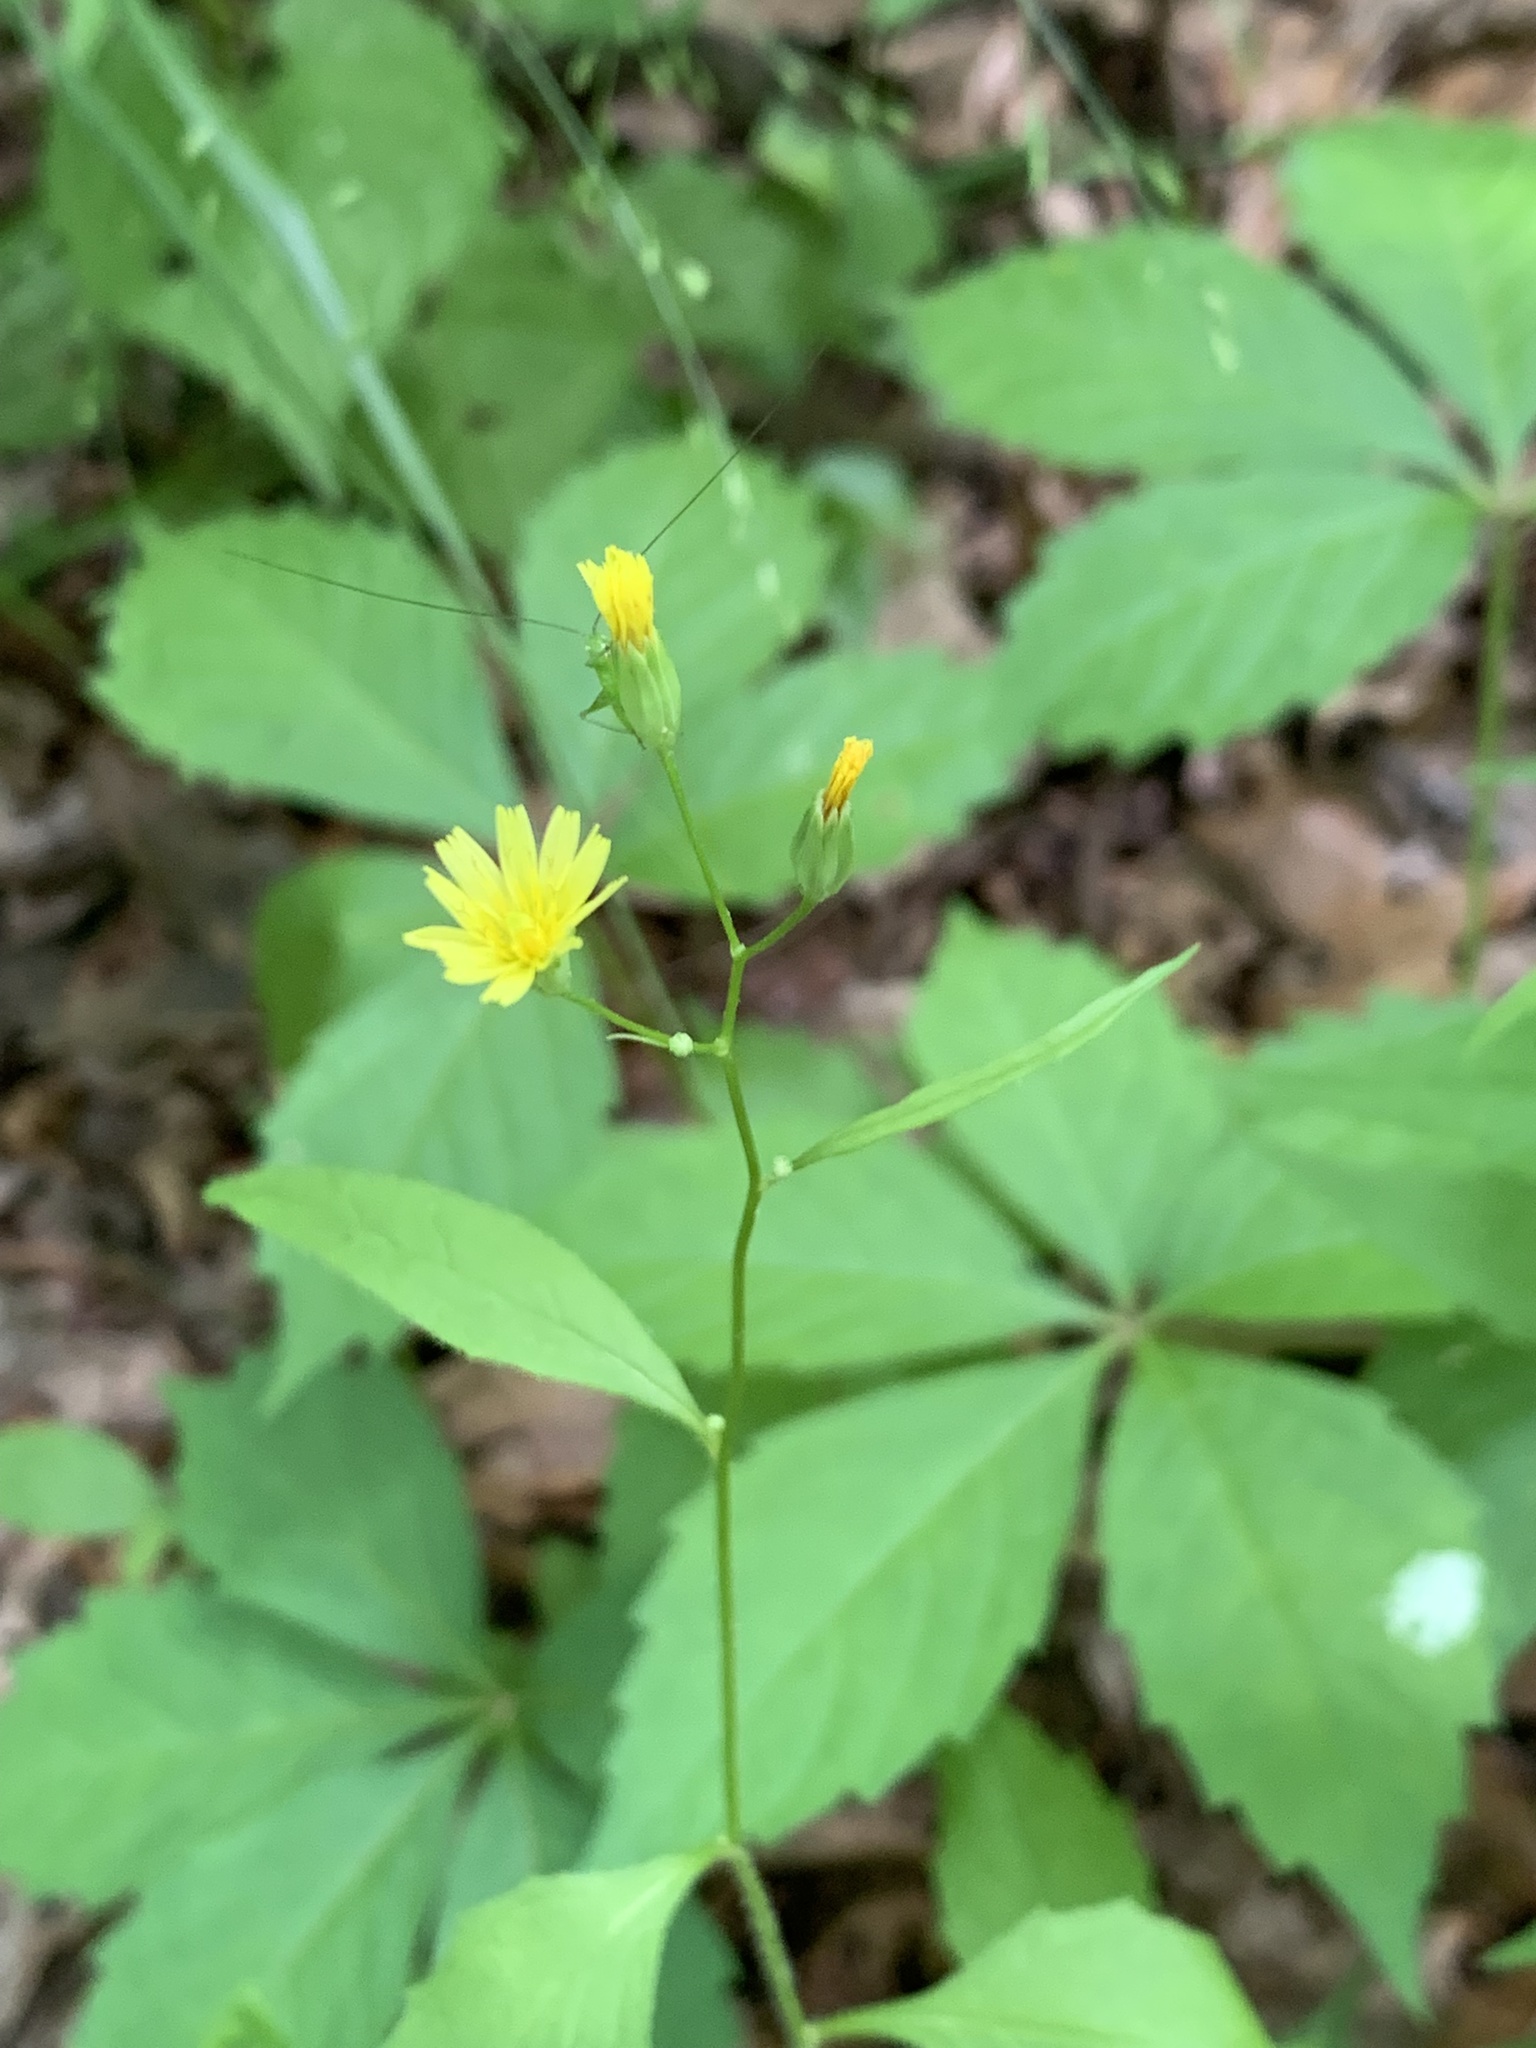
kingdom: Plantae
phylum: Tracheophyta
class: Magnoliopsida
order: Asterales
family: Asteraceae
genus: Lapsana
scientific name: Lapsana communis
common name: Nipplewort
